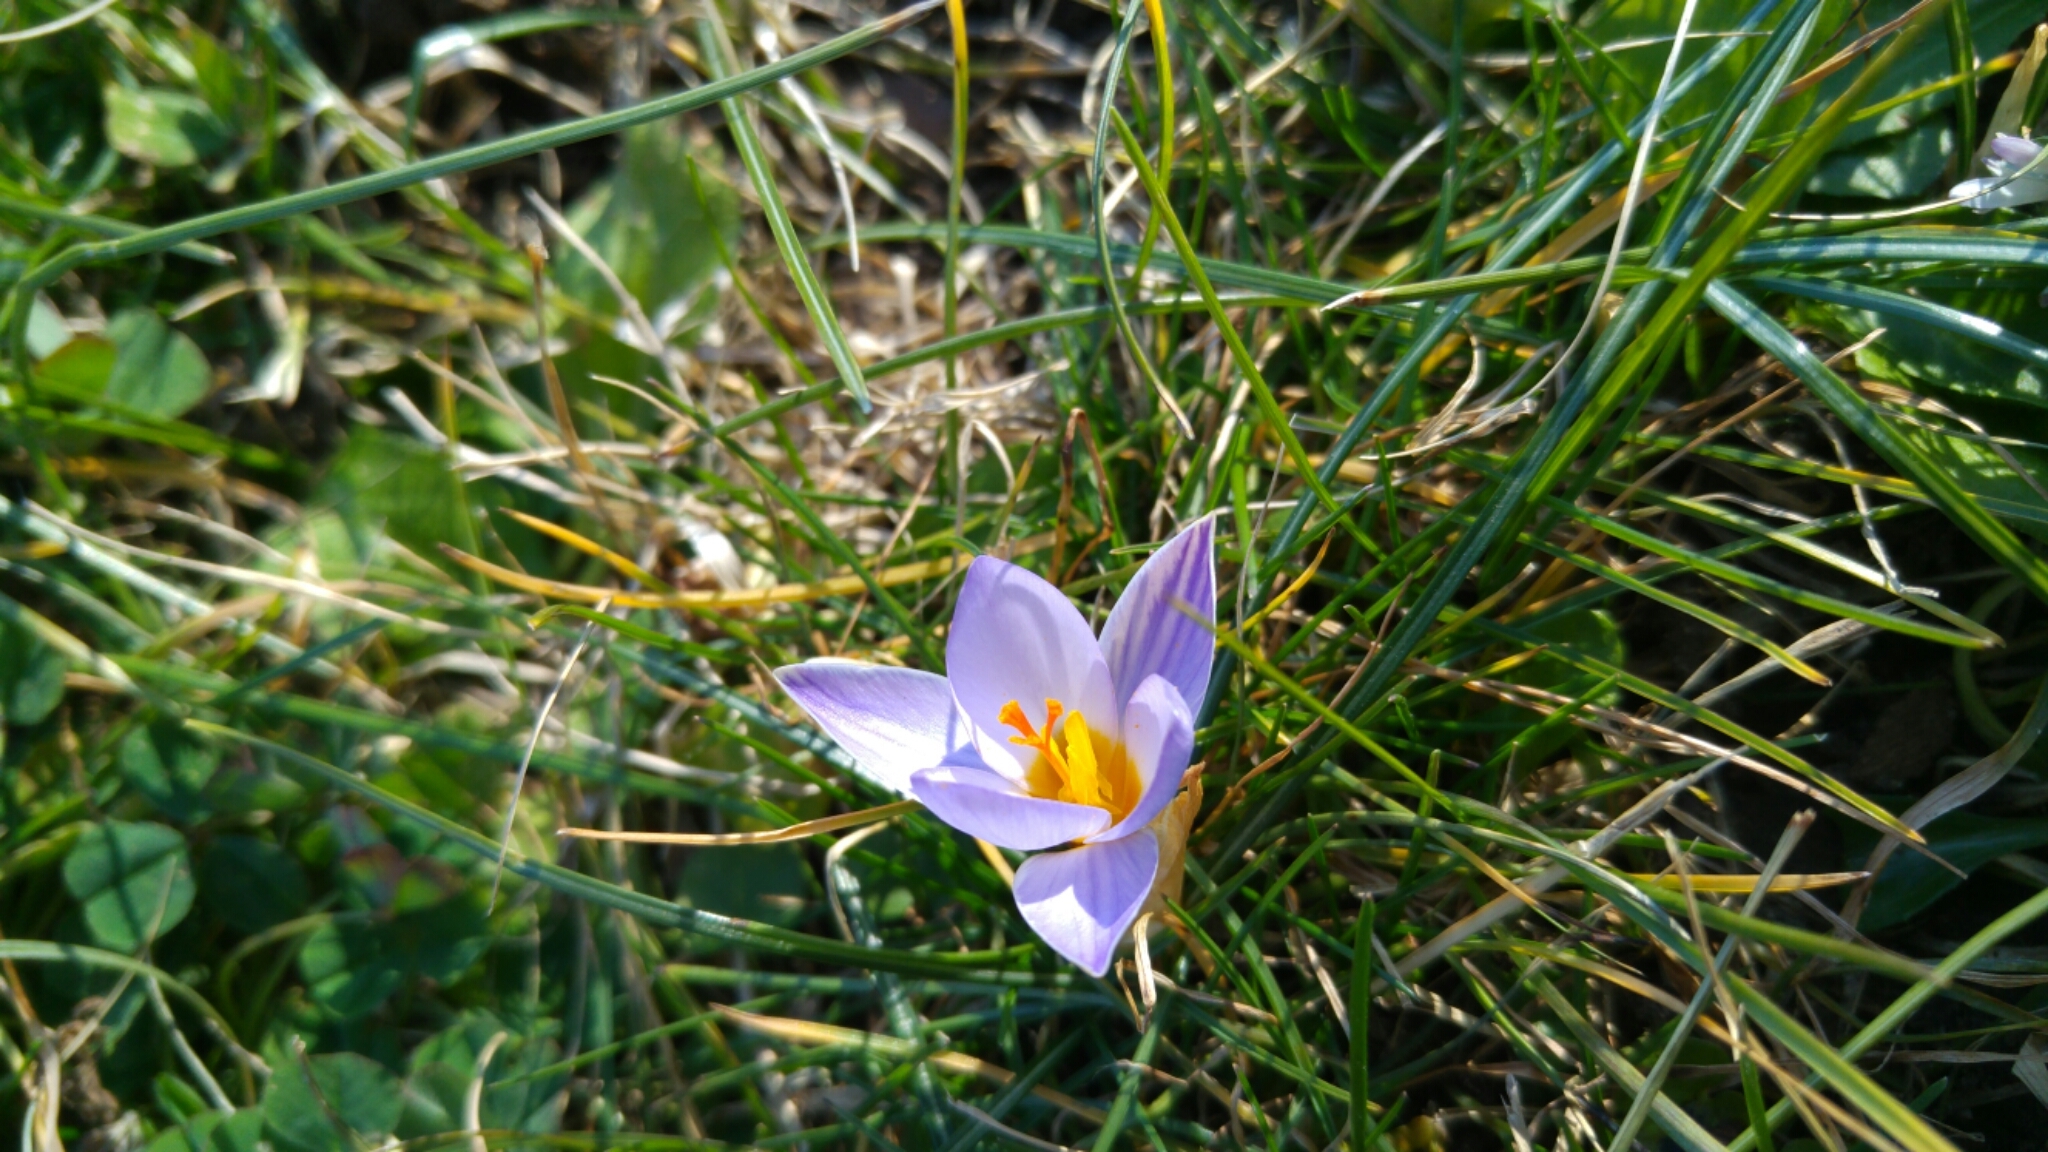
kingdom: Plantae
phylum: Tracheophyta
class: Liliopsida
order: Asparagales
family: Iridaceae
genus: Crocus
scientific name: Crocus biflorus
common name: Silvery crocus
